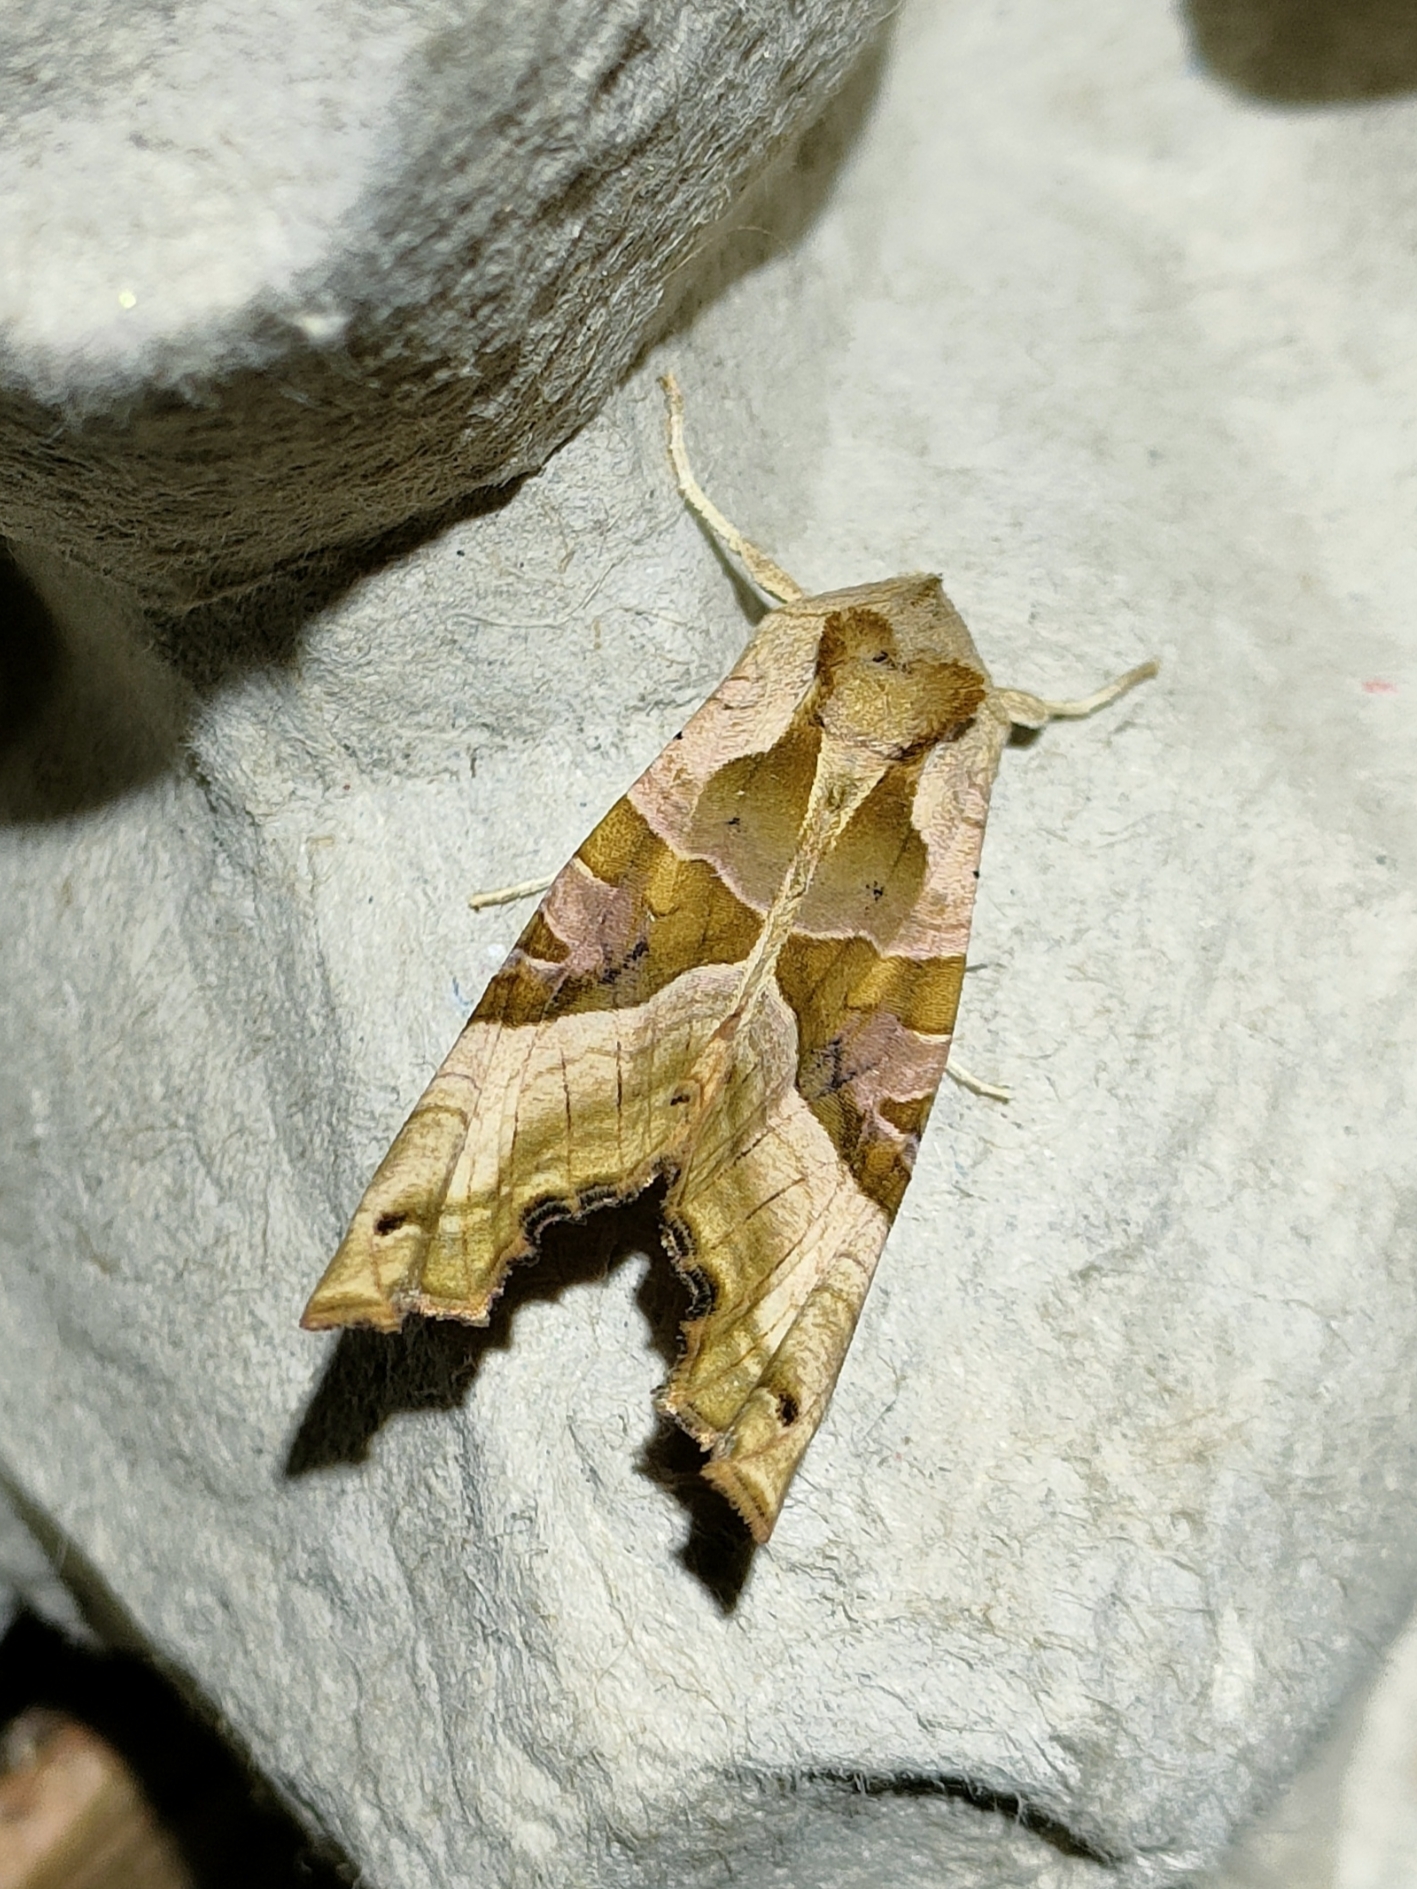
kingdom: Animalia
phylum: Arthropoda
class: Insecta
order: Lepidoptera
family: Noctuidae
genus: Phlogophora
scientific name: Phlogophora meticulosa
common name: Angle shades
